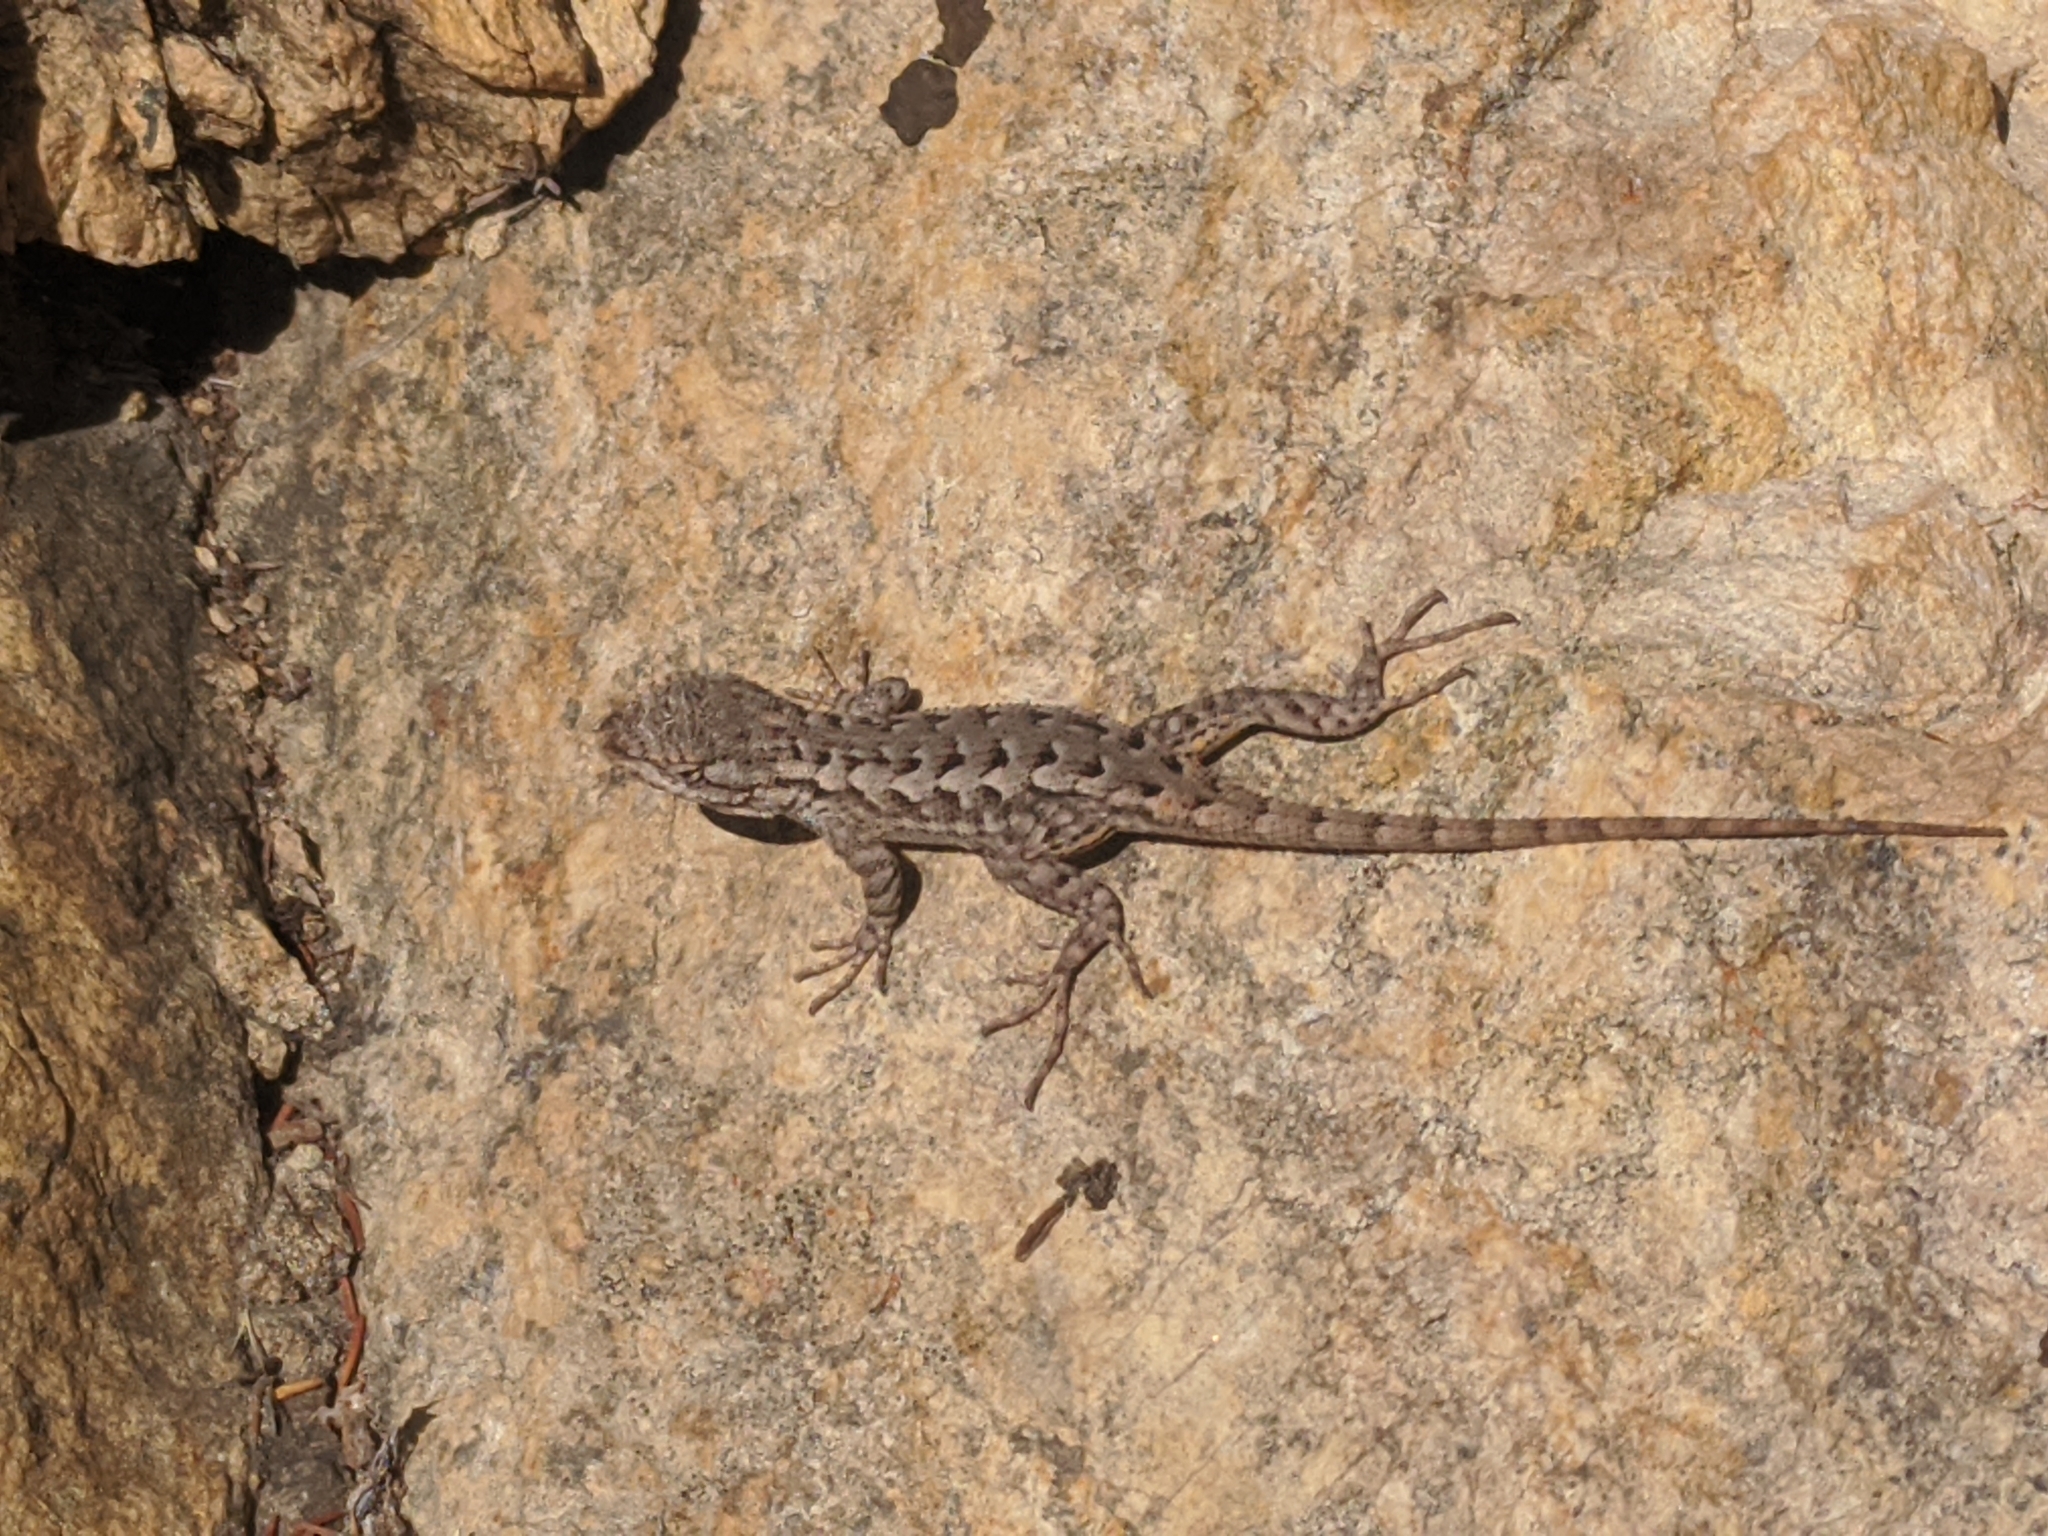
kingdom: Animalia
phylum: Chordata
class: Squamata
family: Phrynosomatidae
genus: Sceloporus
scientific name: Sceloporus occidentalis
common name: Western fence lizard
